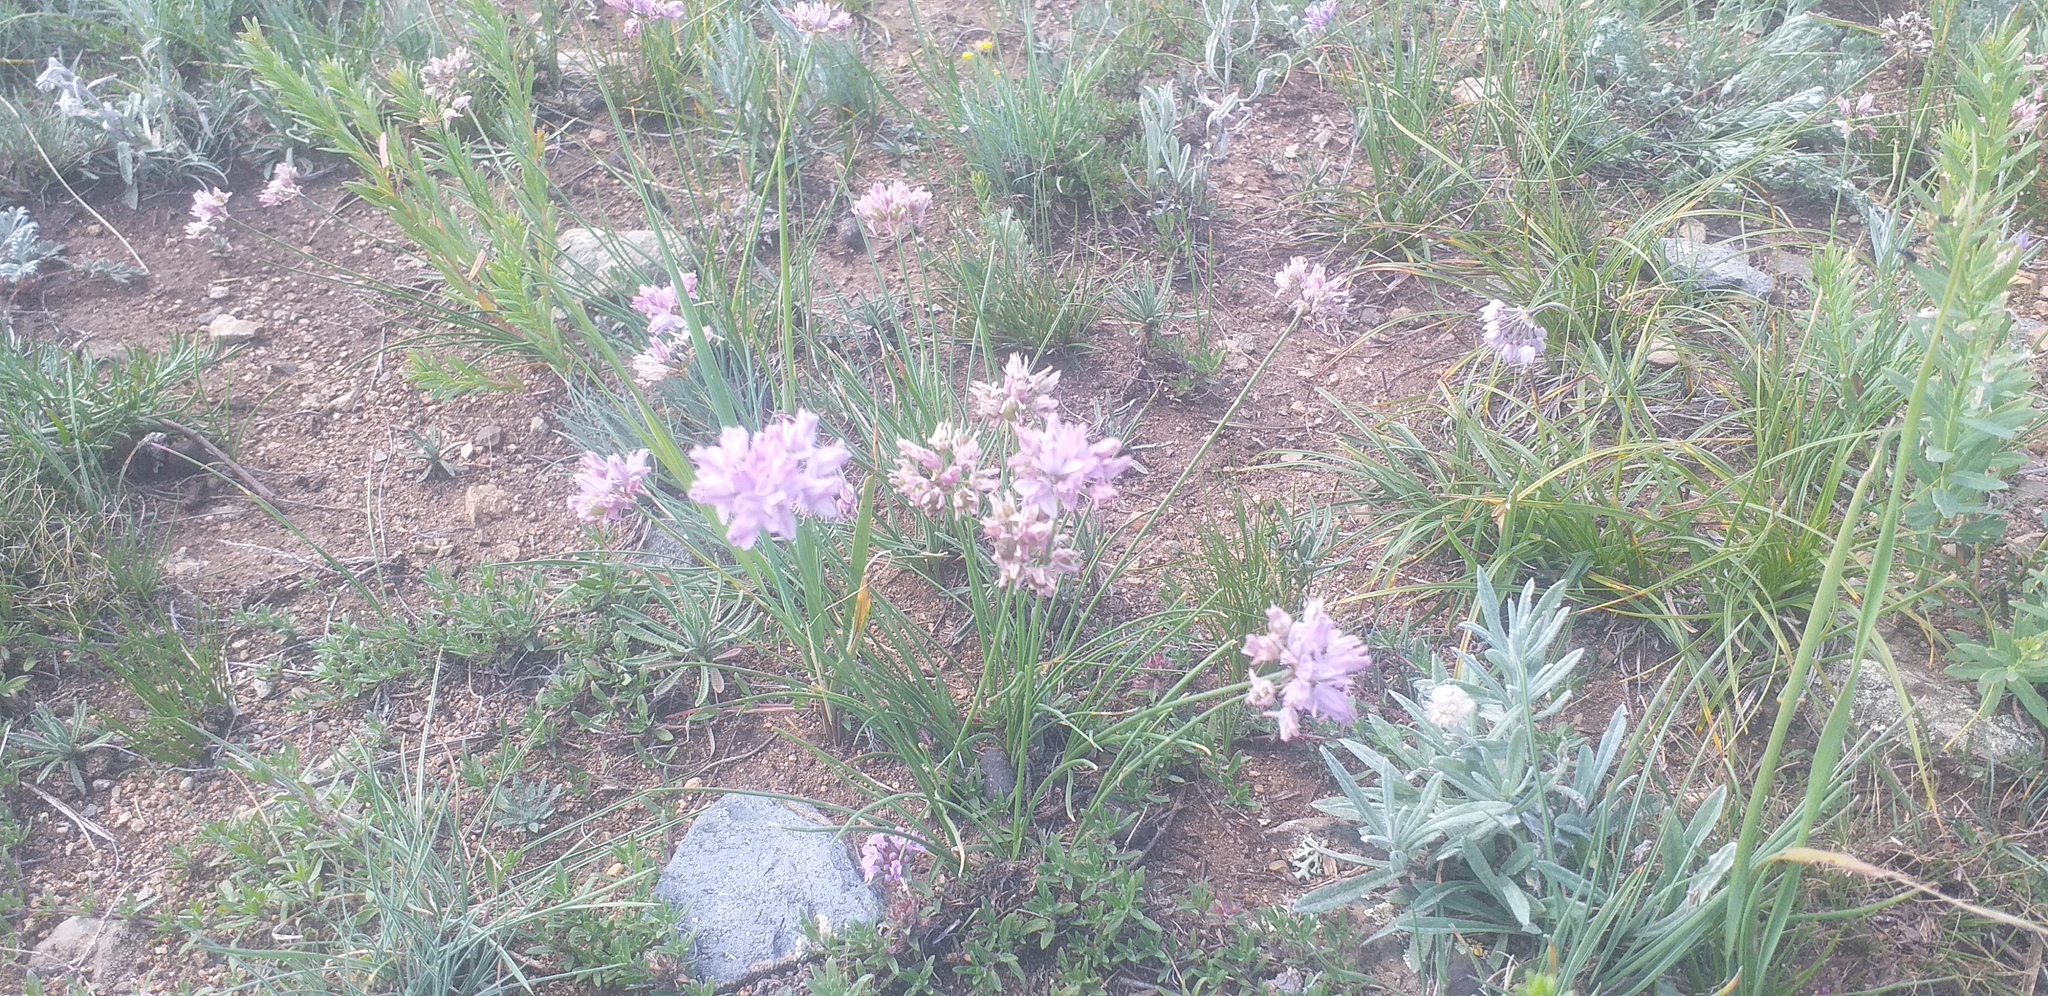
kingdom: Plantae
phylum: Tracheophyta
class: Liliopsida
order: Asparagales
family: Amaryllidaceae
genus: Allium
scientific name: Allium anisopodium
